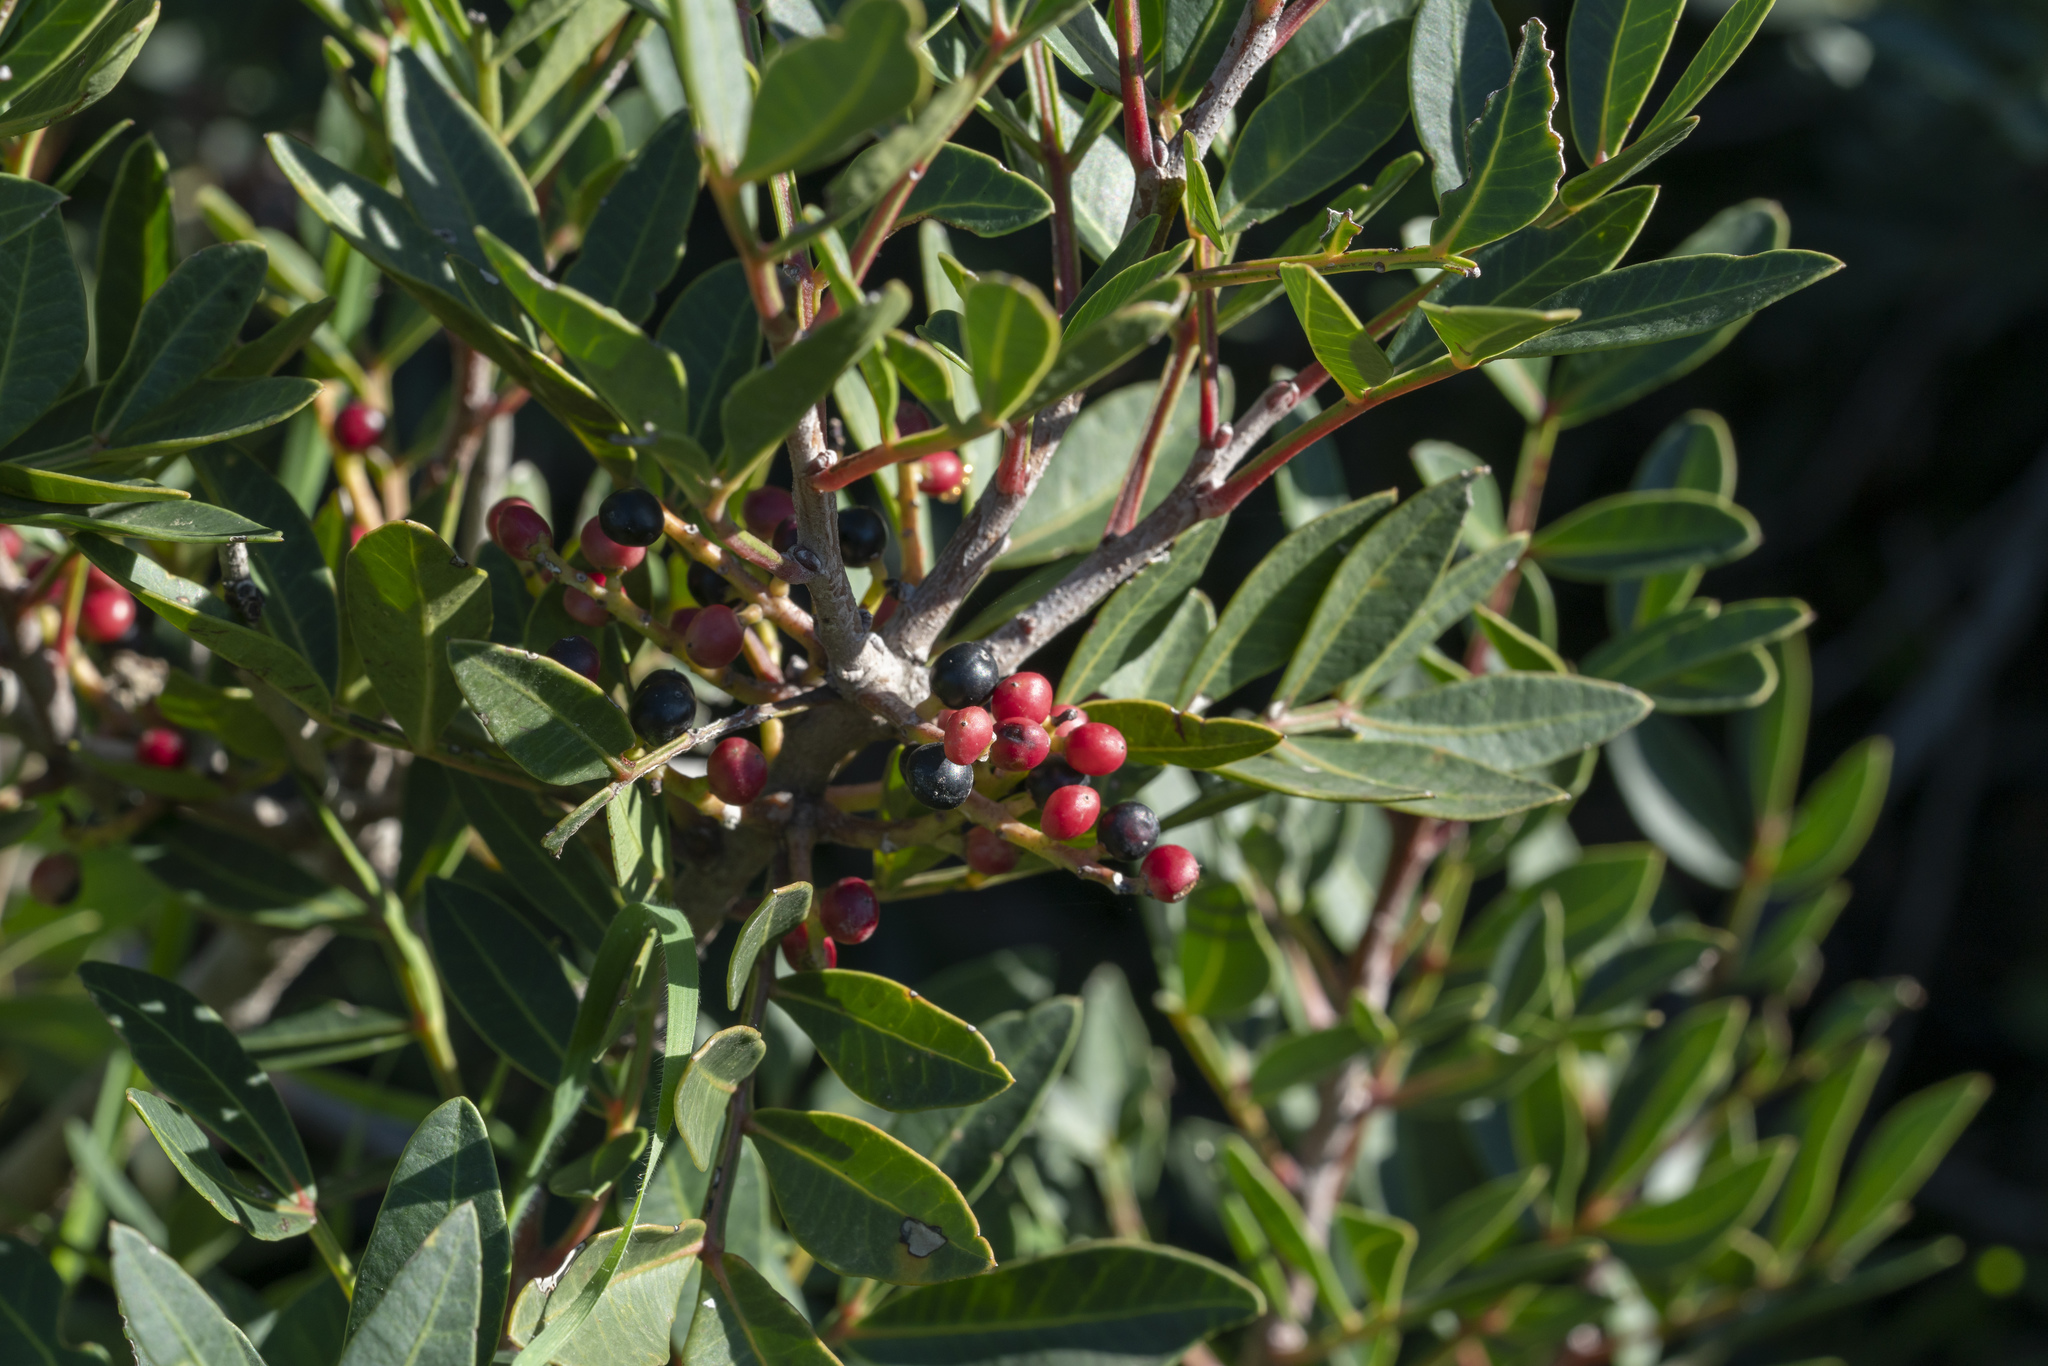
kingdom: Plantae
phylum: Tracheophyta
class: Magnoliopsida
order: Sapindales
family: Anacardiaceae
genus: Pistacia
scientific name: Pistacia lentiscus
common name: Lentisk
